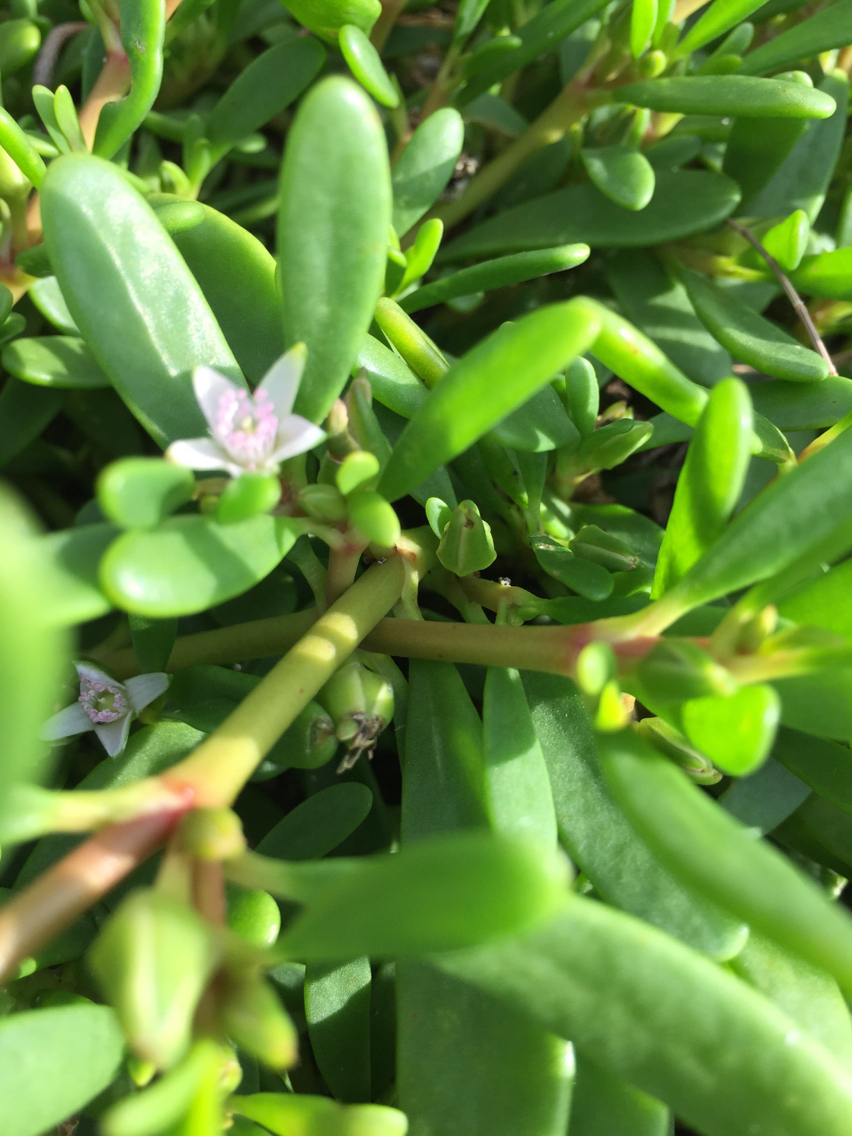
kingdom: Plantae
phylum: Tracheophyta
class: Magnoliopsida
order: Caryophyllales
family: Aizoaceae
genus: Sesuvium
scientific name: Sesuvium portulacastrum
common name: Sea-purslane
